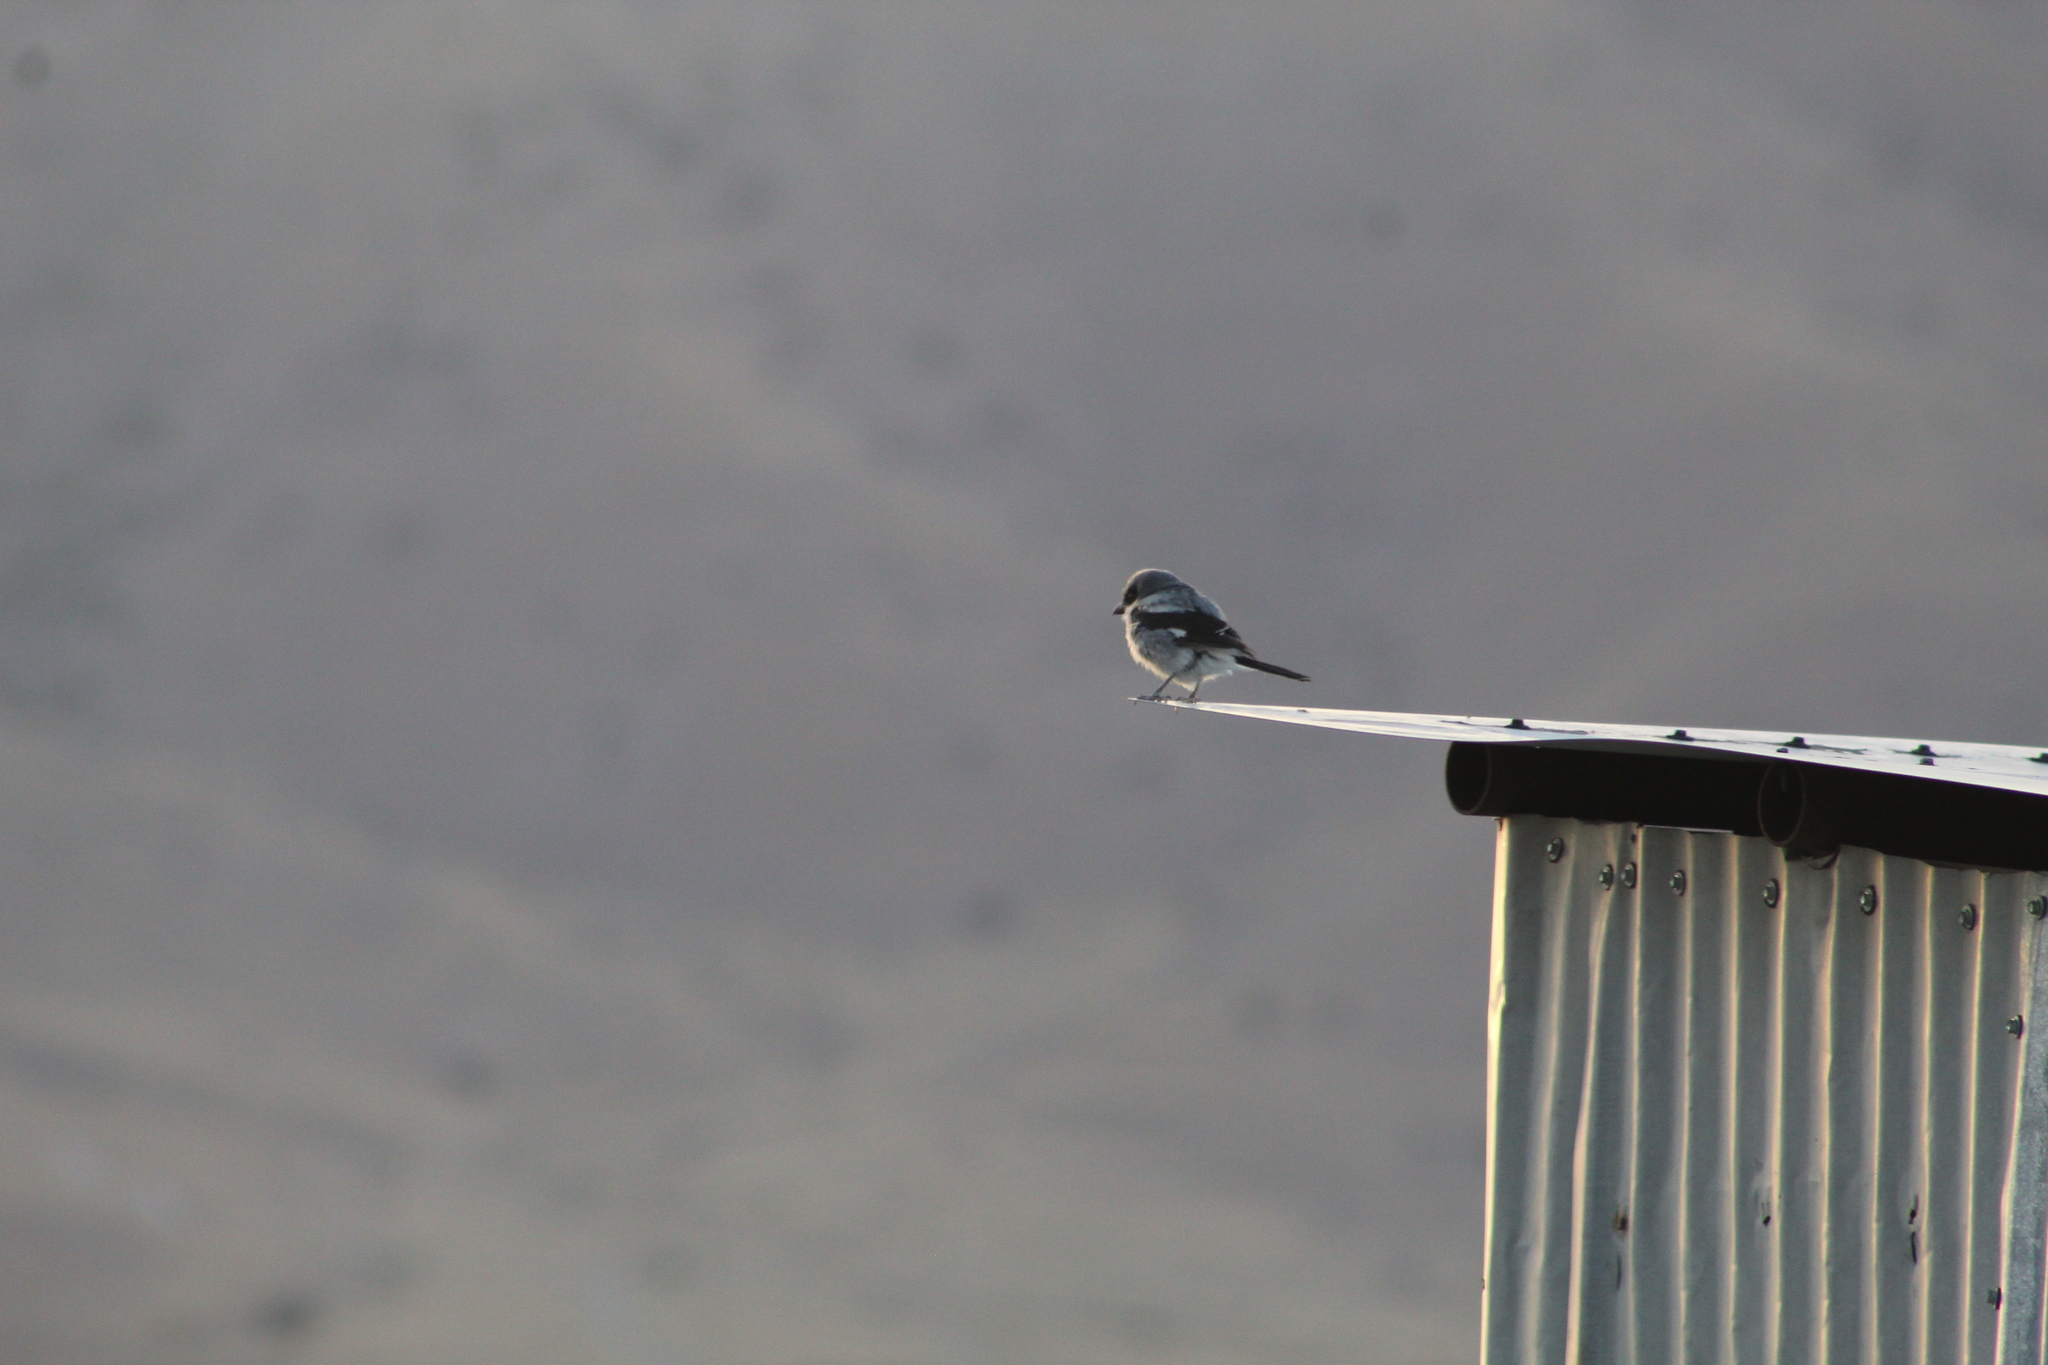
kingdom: Animalia
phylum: Chordata
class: Aves
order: Passeriformes
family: Laniidae
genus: Lanius
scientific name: Lanius ludovicianus
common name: Loggerhead shrike
